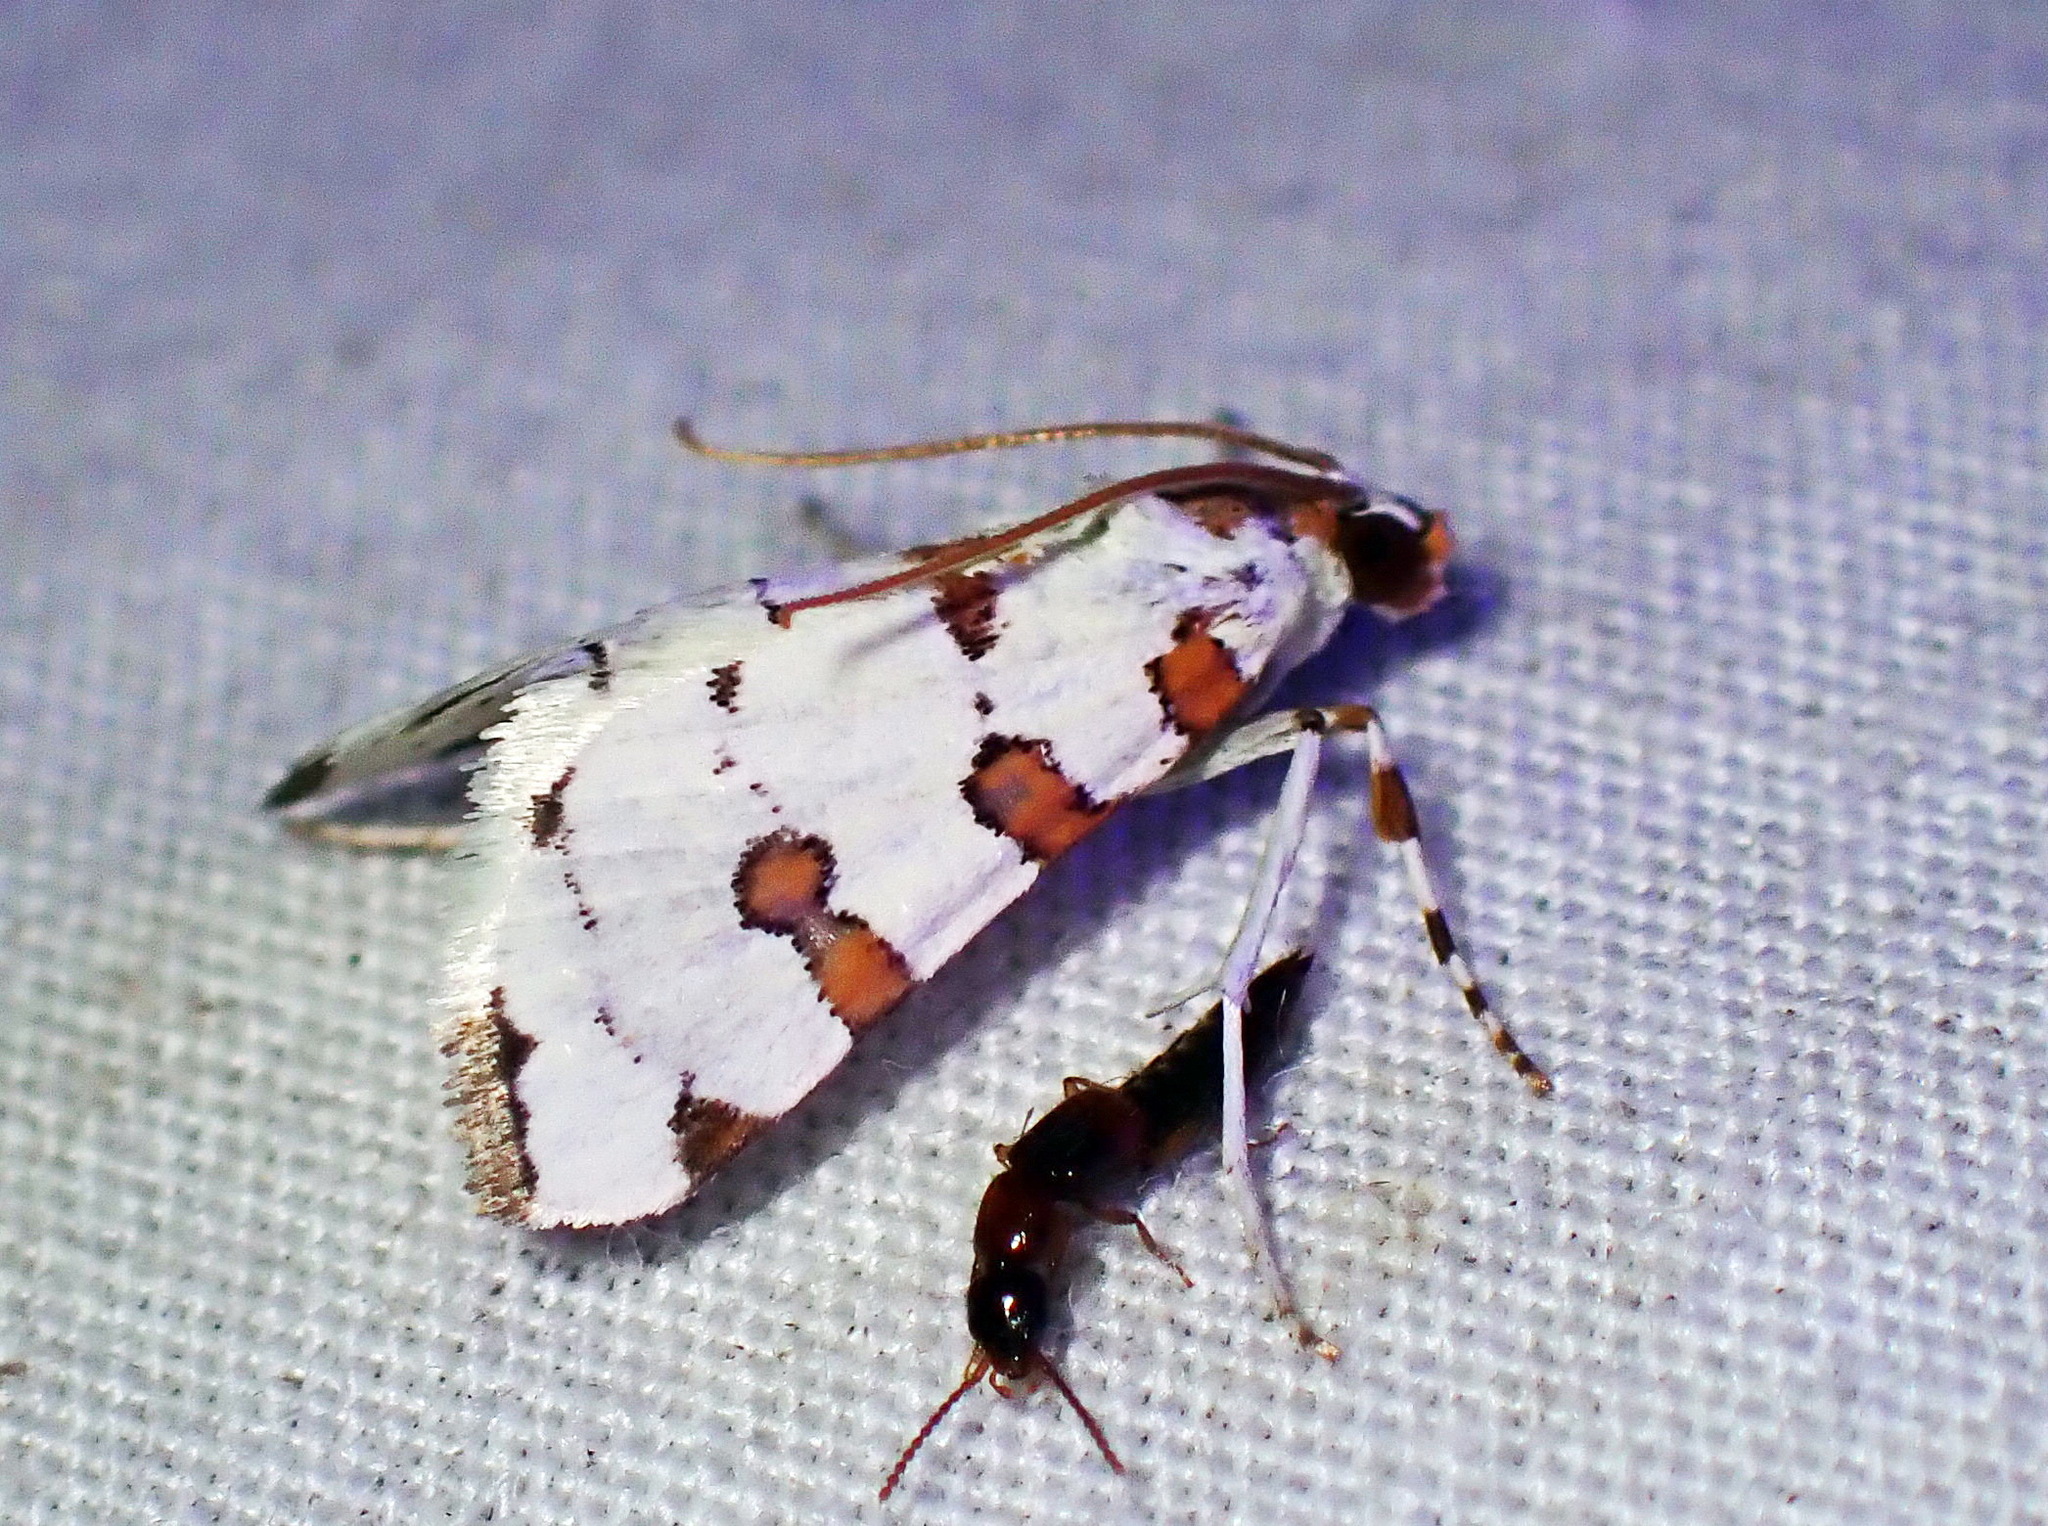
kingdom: Animalia
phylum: Arthropoda
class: Insecta
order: Lepidoptera
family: Crambidae
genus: Conchylodes
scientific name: Conchylodes
